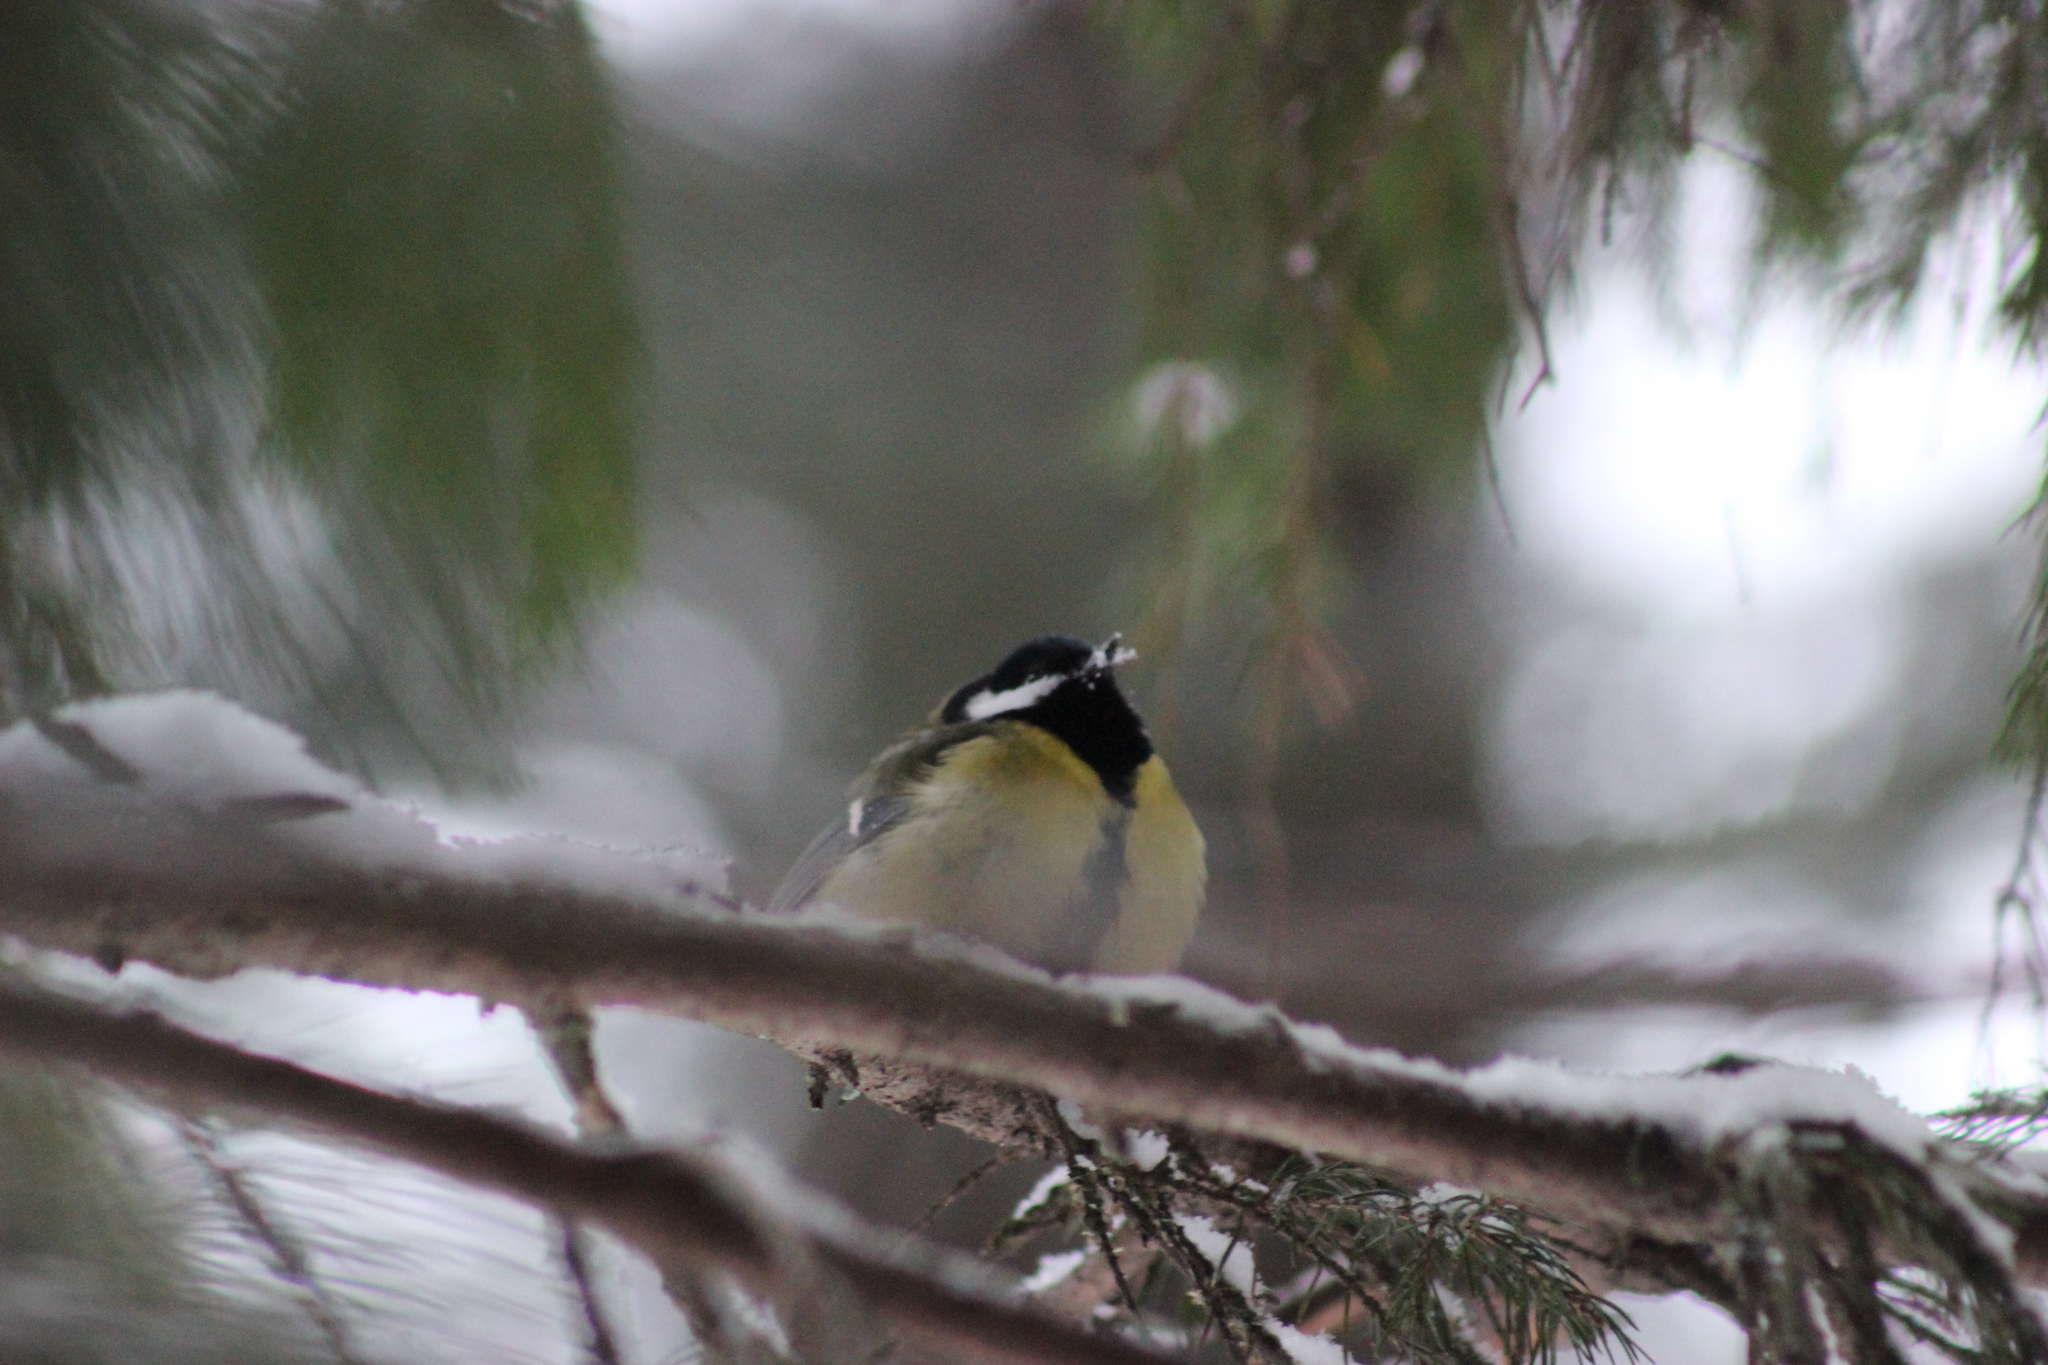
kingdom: Animalia
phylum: Chordata
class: Aves
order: Passeriformes
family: Paridae
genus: Parus
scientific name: Parus major
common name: Great tit
